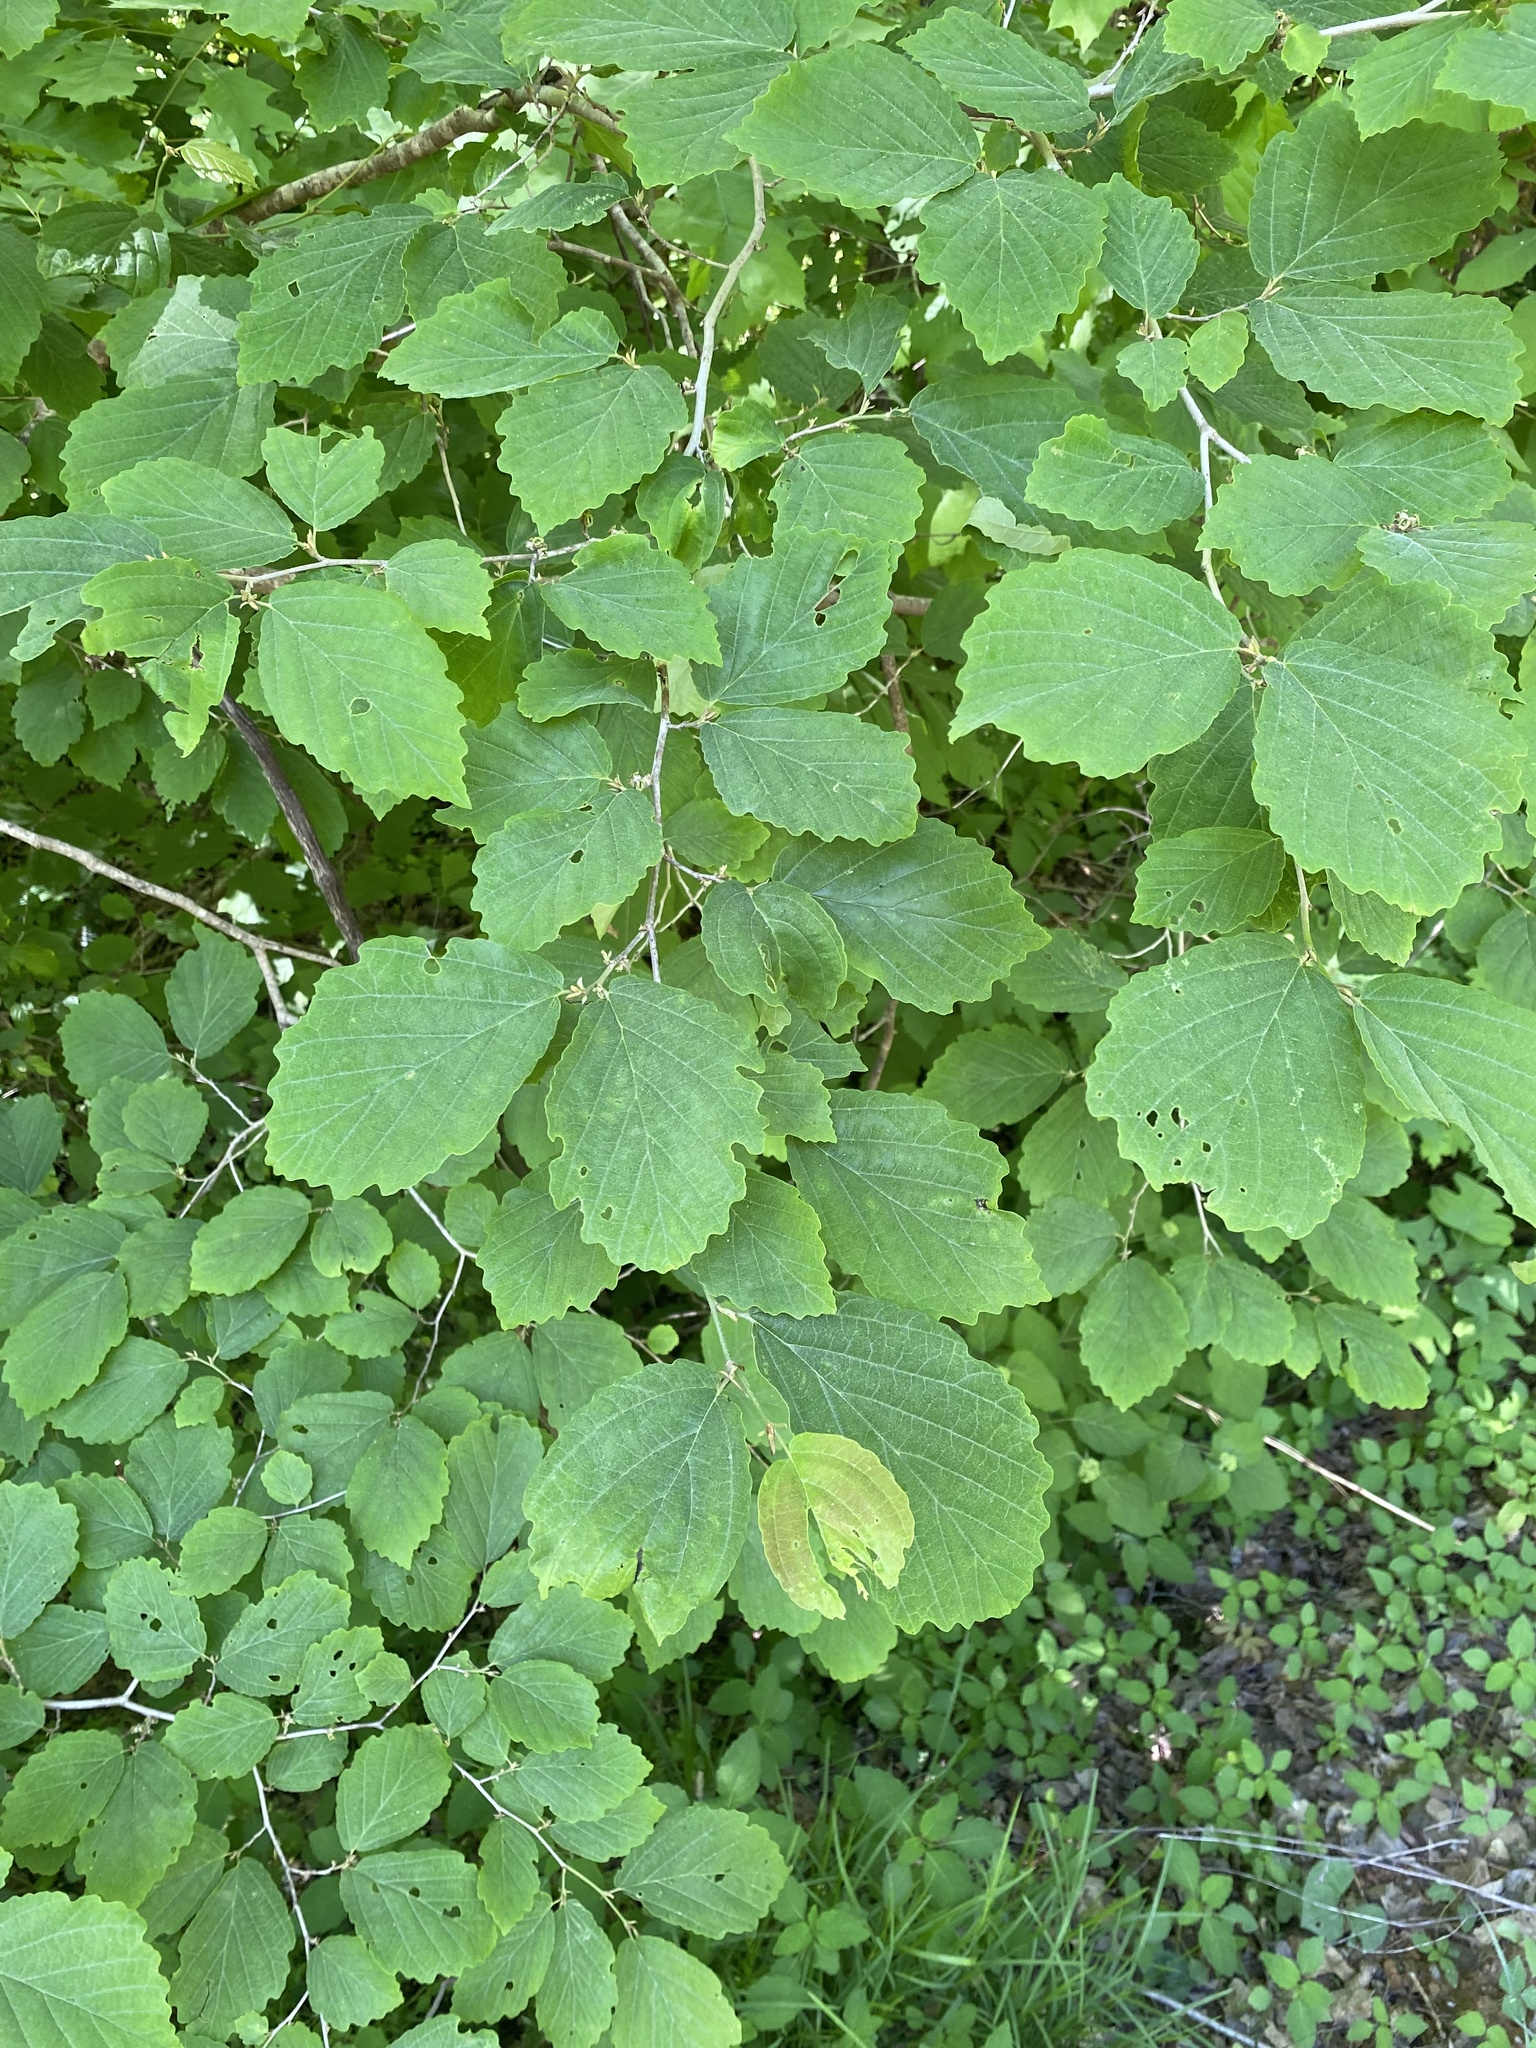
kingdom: Plantae
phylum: Tracheophyta
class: Magnoliopsida
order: Saxifragales
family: Hamamelidaceae
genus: Hamamelis
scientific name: Hamamelis virginiana
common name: Witch-hazel
